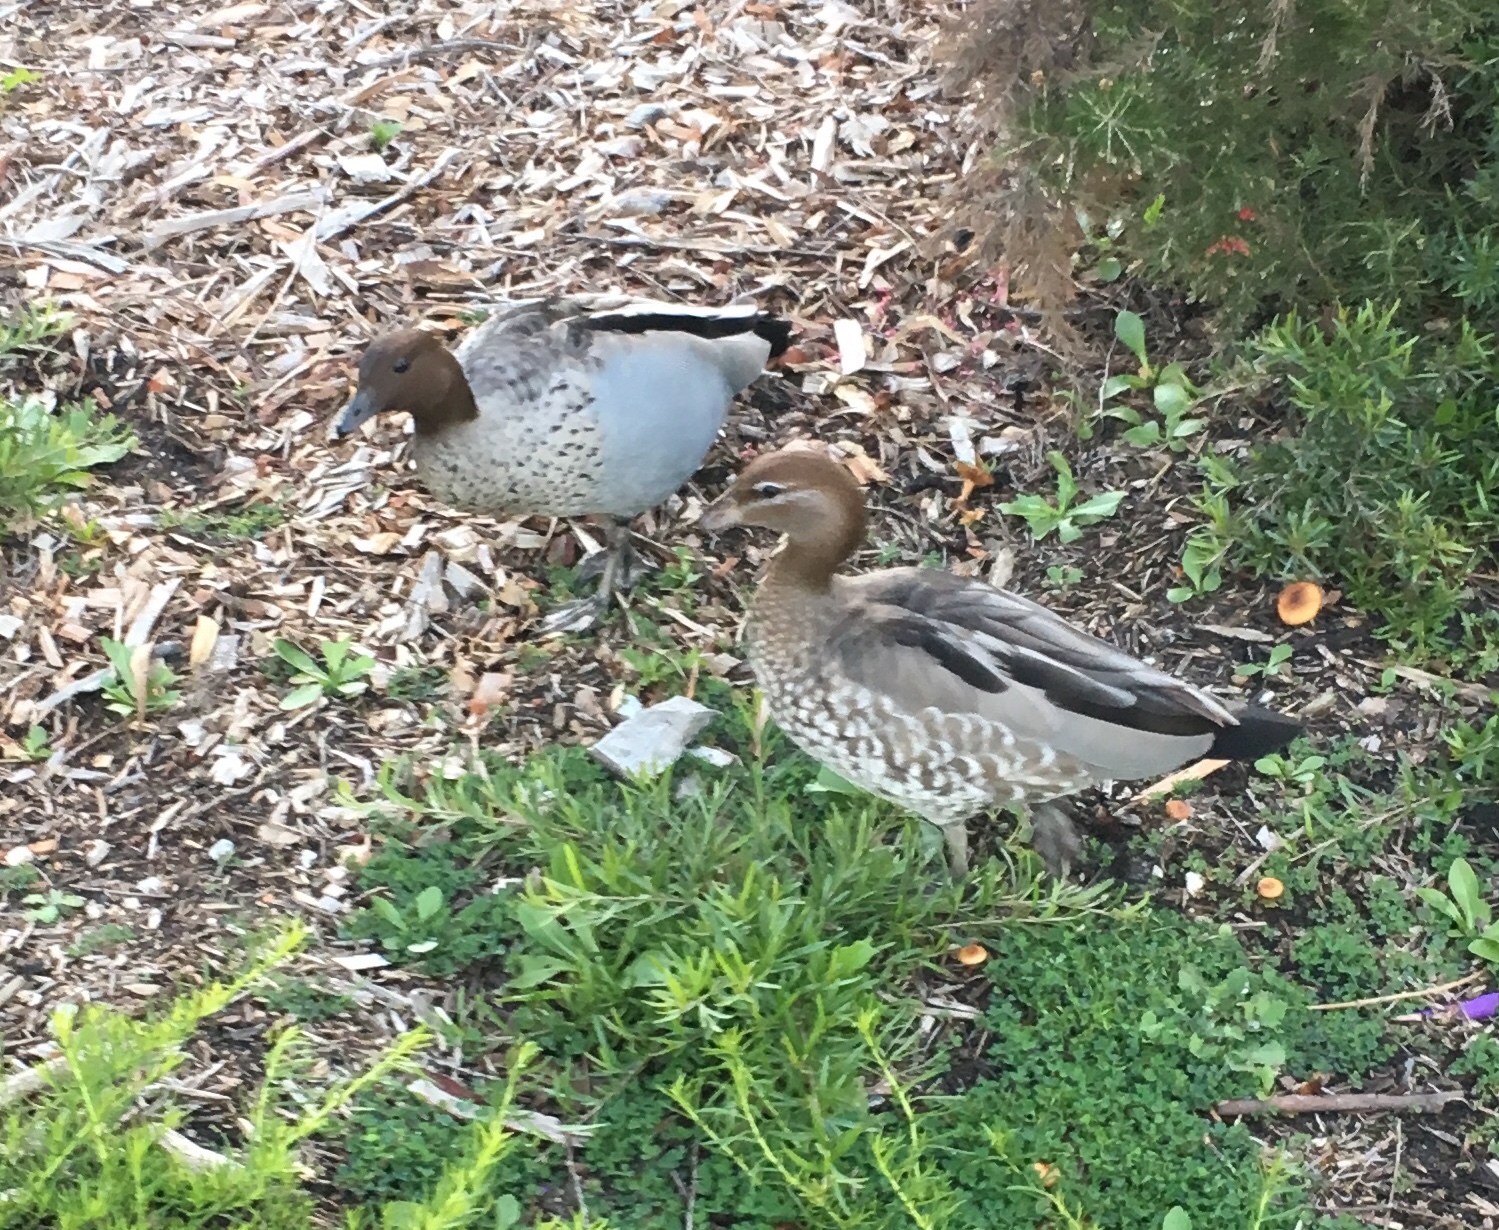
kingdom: Animalia
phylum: Chordata
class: Aves
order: Anseriformes
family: Anatidae
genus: Chenonetta
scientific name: Chenonetta jubata
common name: Maned duck
